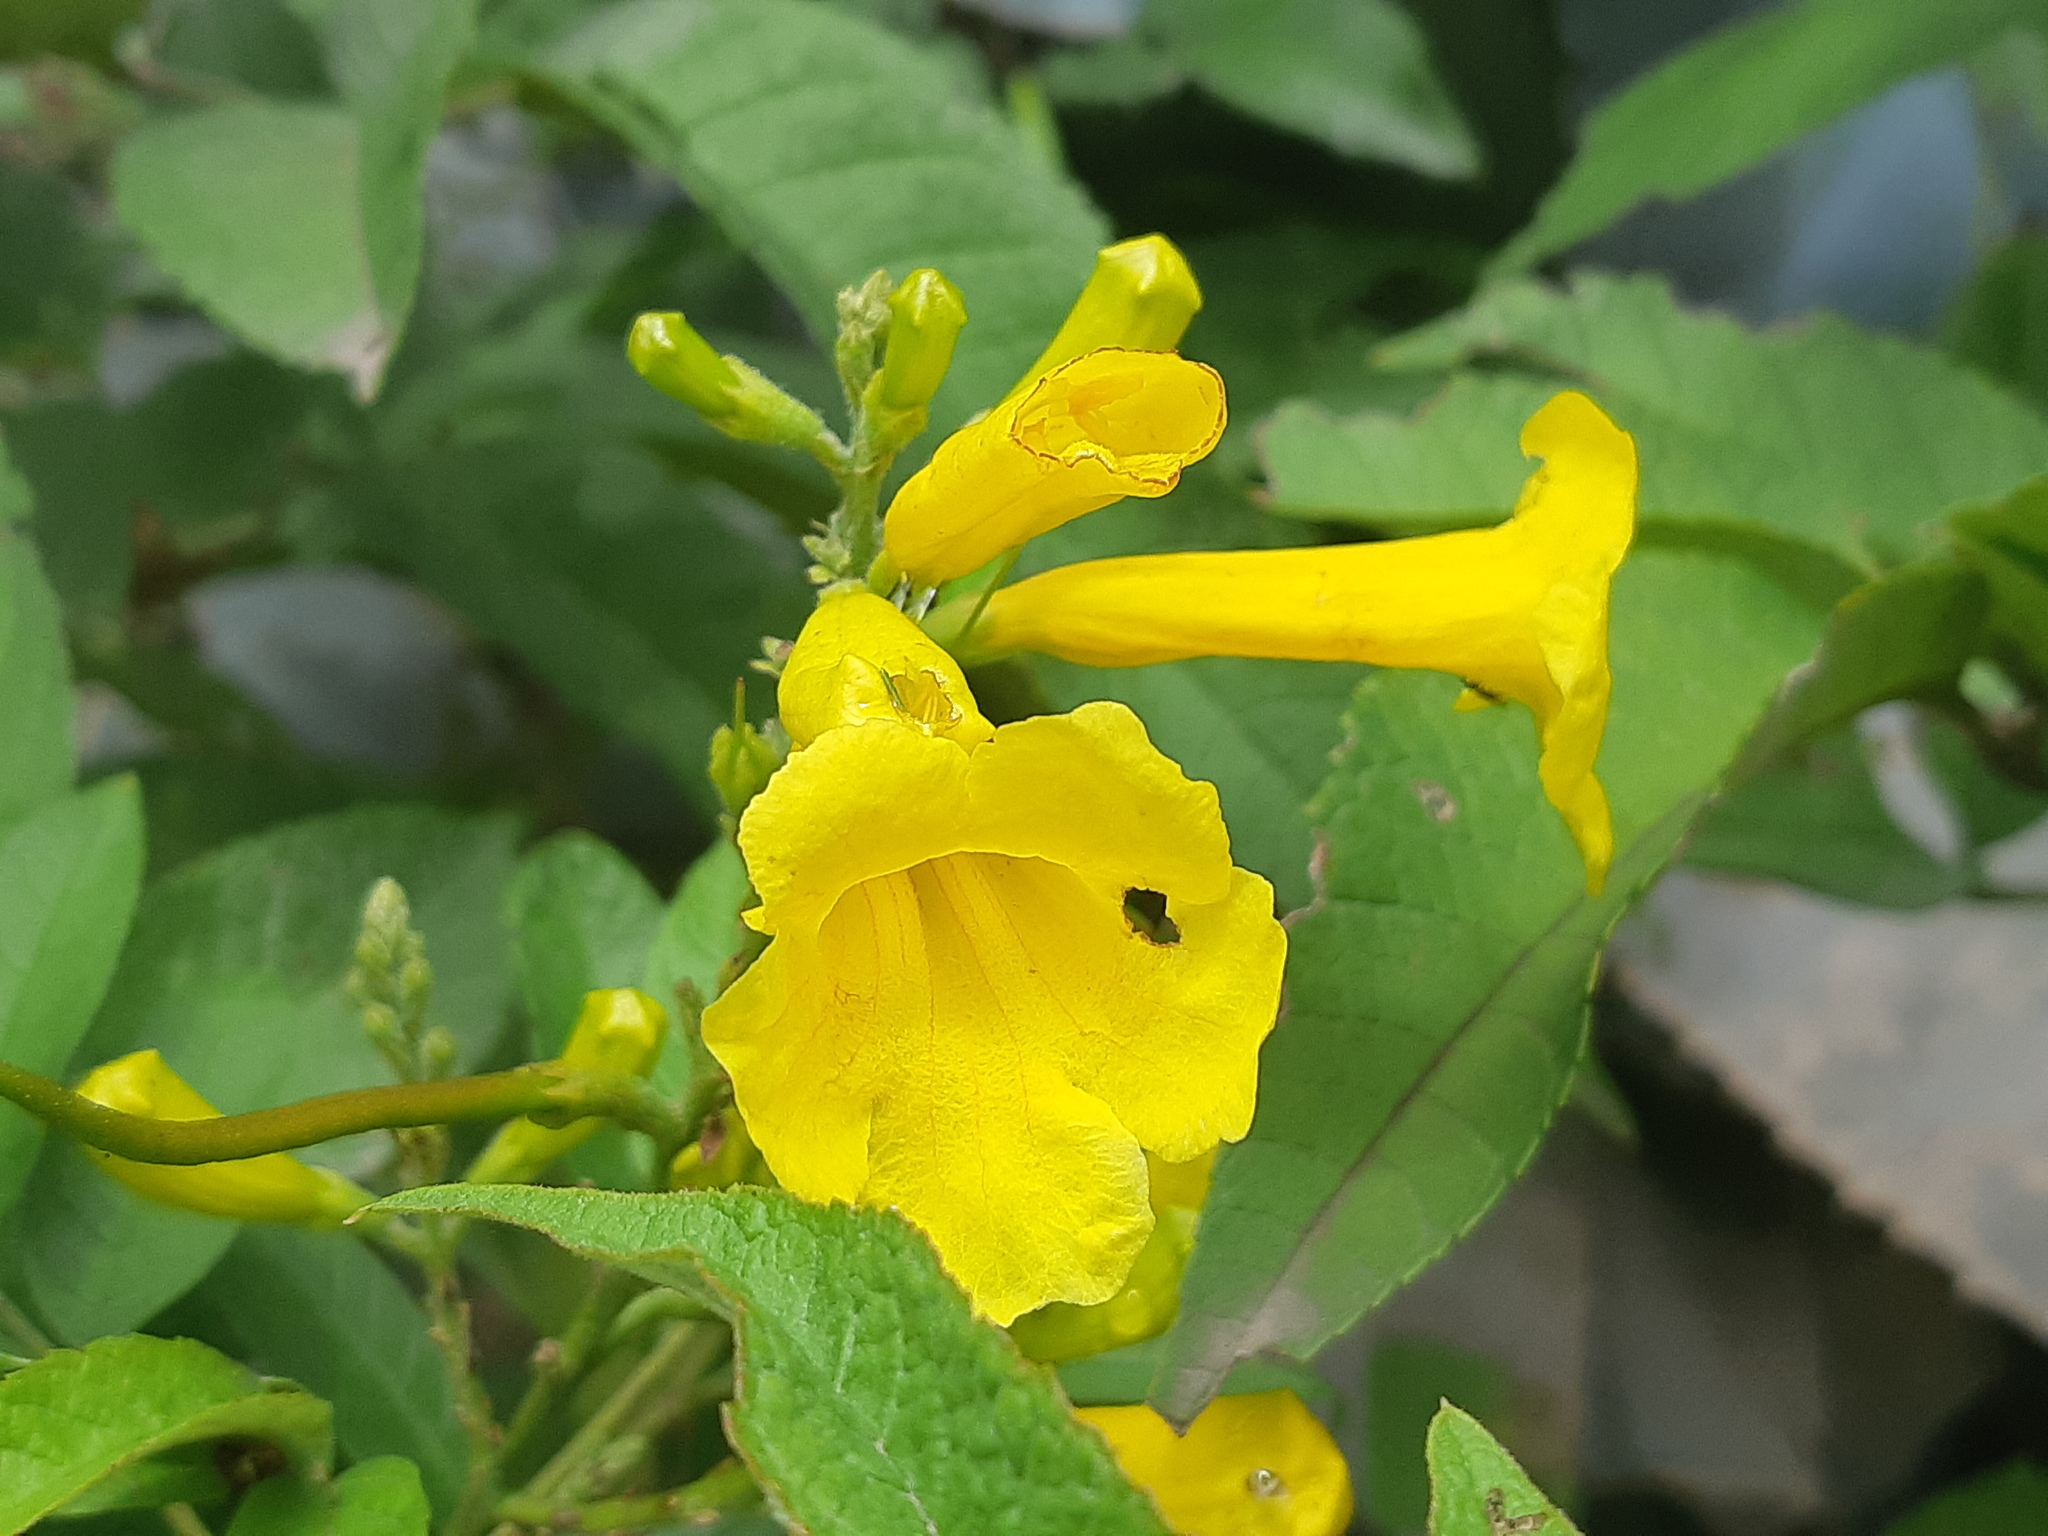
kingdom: Plantae
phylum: Tracheophyta
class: Magnoliopsida
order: Lamiales
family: Bignoniaceae
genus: Tecoma
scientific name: Tecoma stans
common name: Yellow trumpetbush
